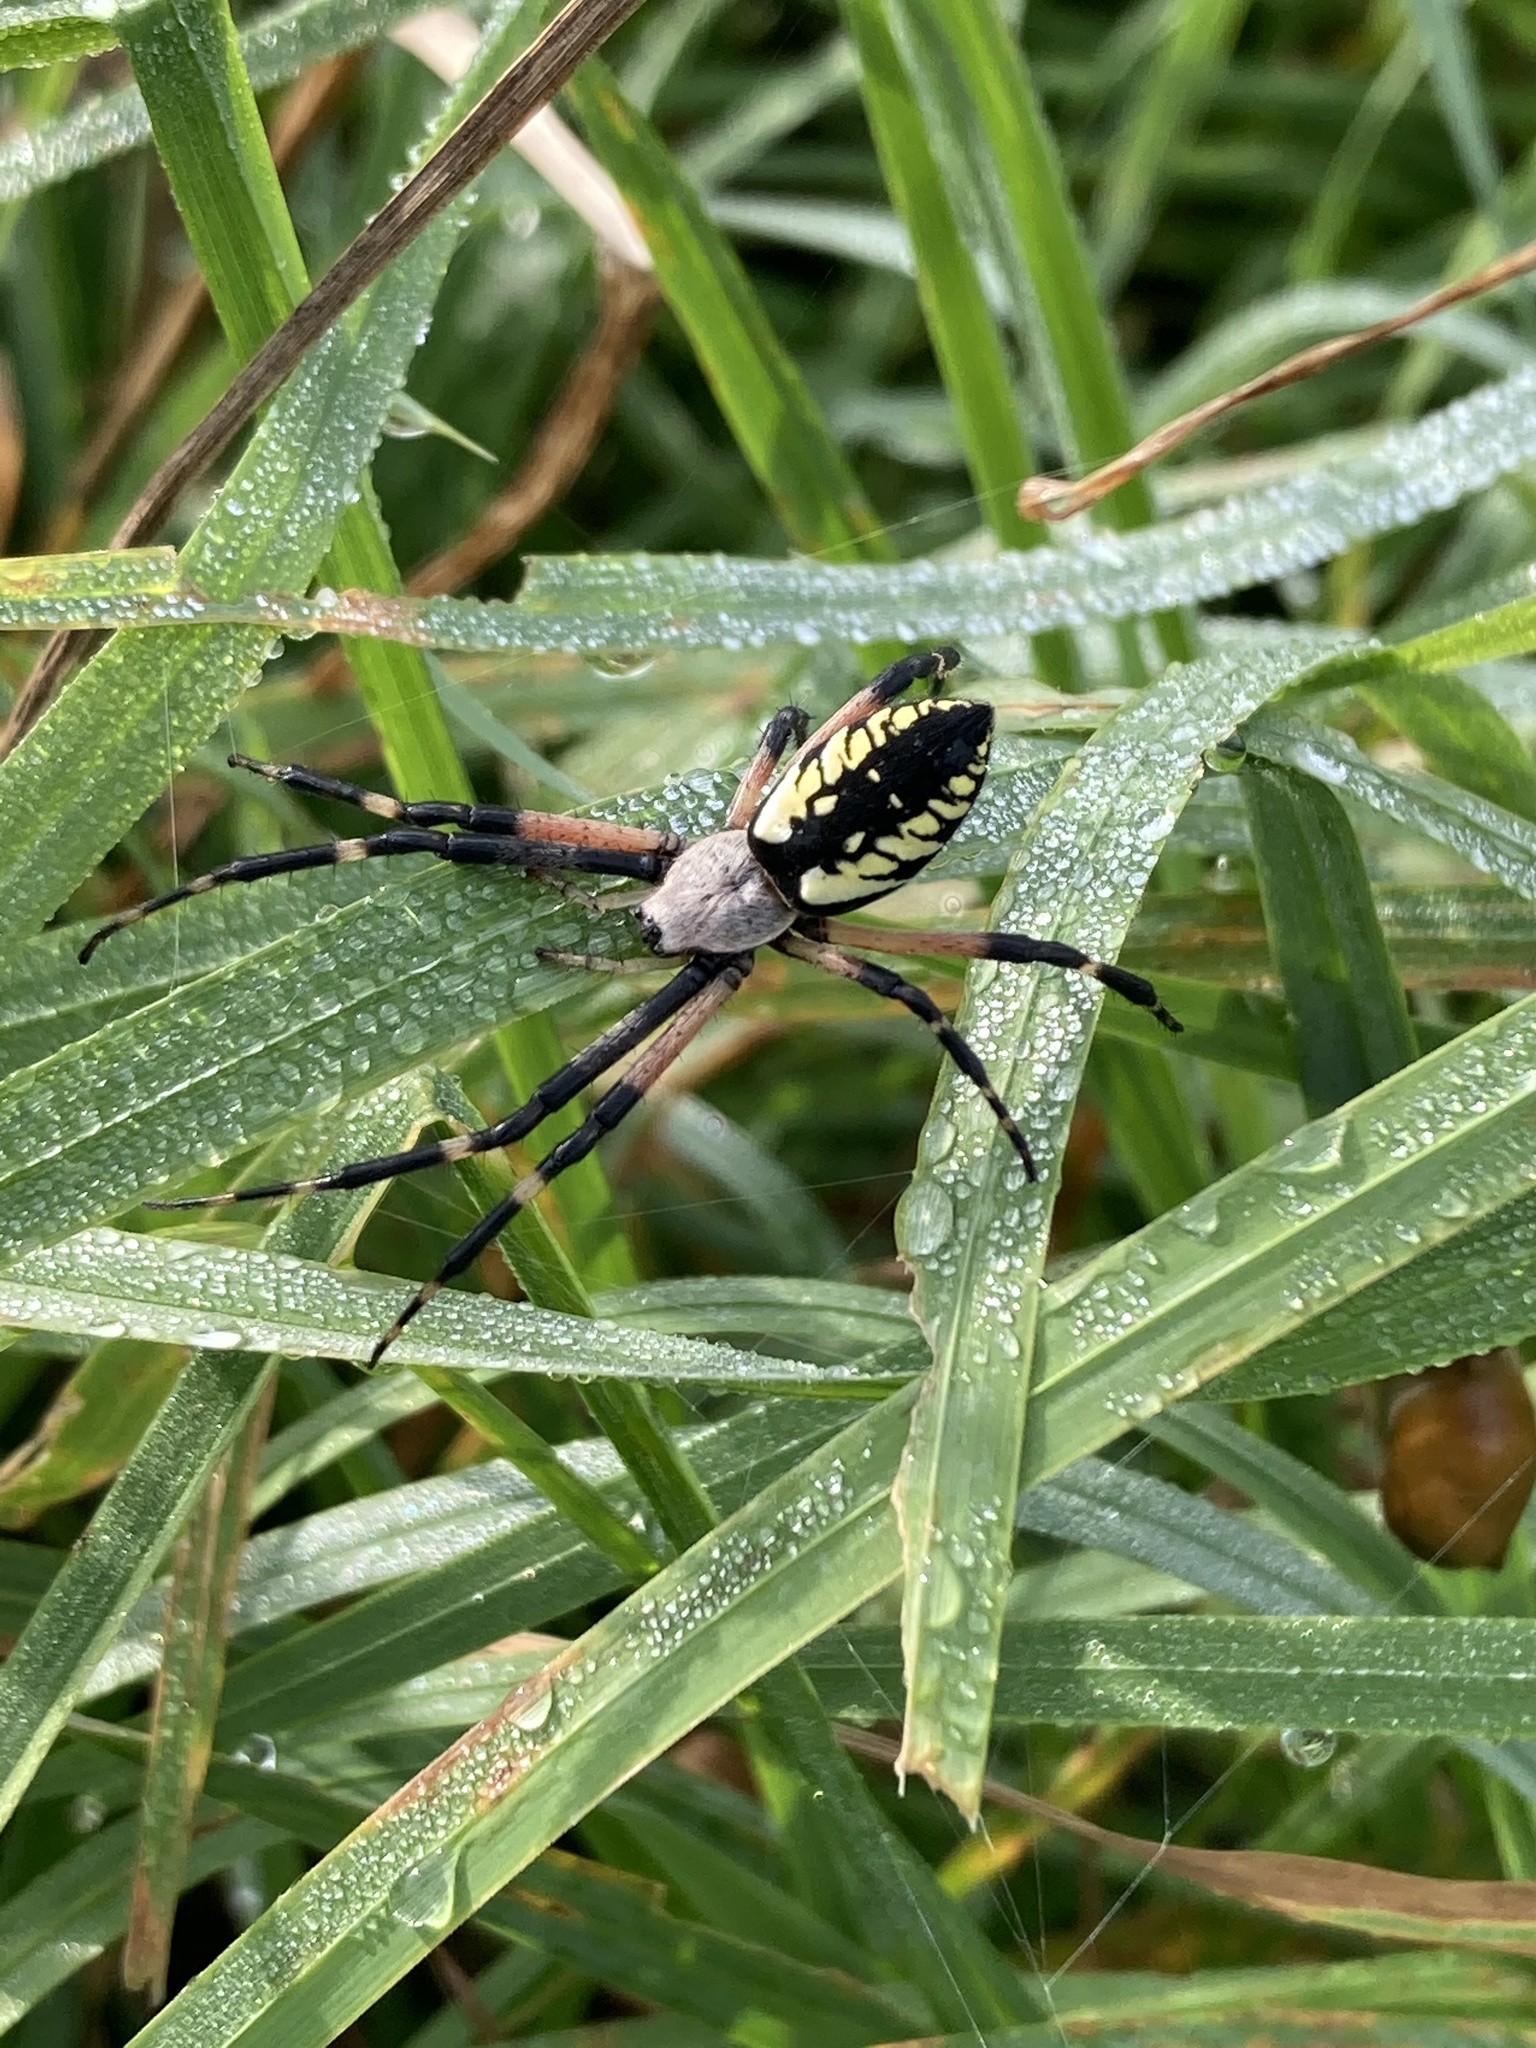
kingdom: Animalia
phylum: Arthropoda
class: Arachnida
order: Araneae
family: Araneidae
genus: Argiope
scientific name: Argiope aurantia
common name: Orb weavers
